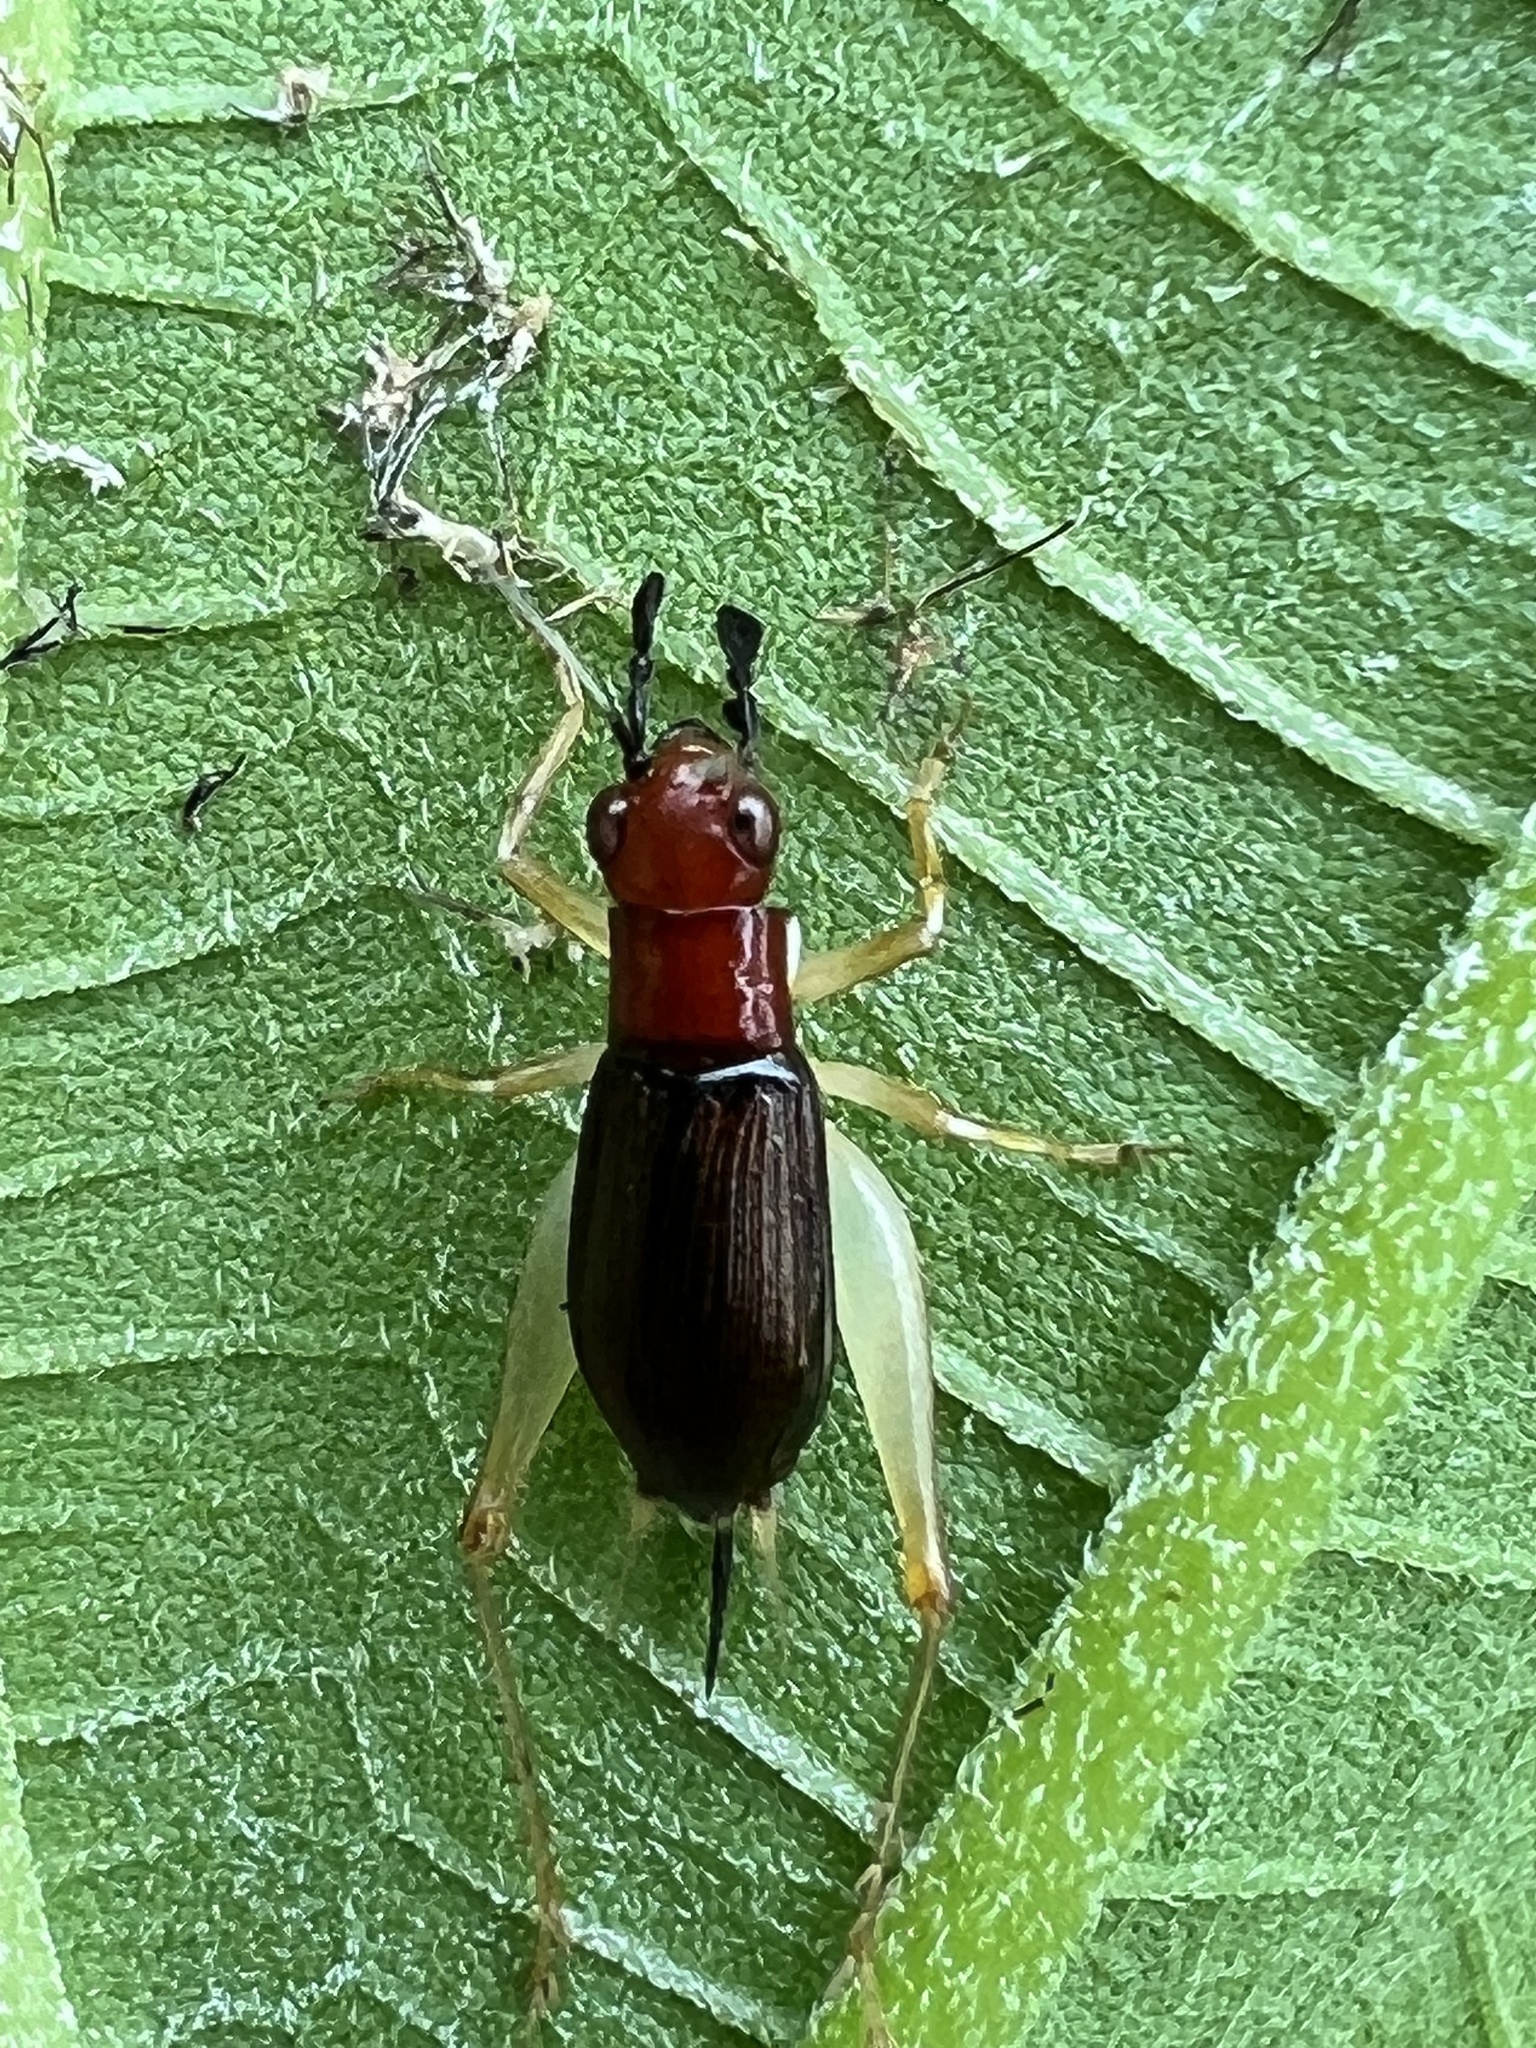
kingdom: Animalia
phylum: Arthropoda
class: Insecta
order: Orthoptera
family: Trigonidiidae
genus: Phyllopalpus
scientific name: Phyllopalpus pulchellus
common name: Handsome trig
